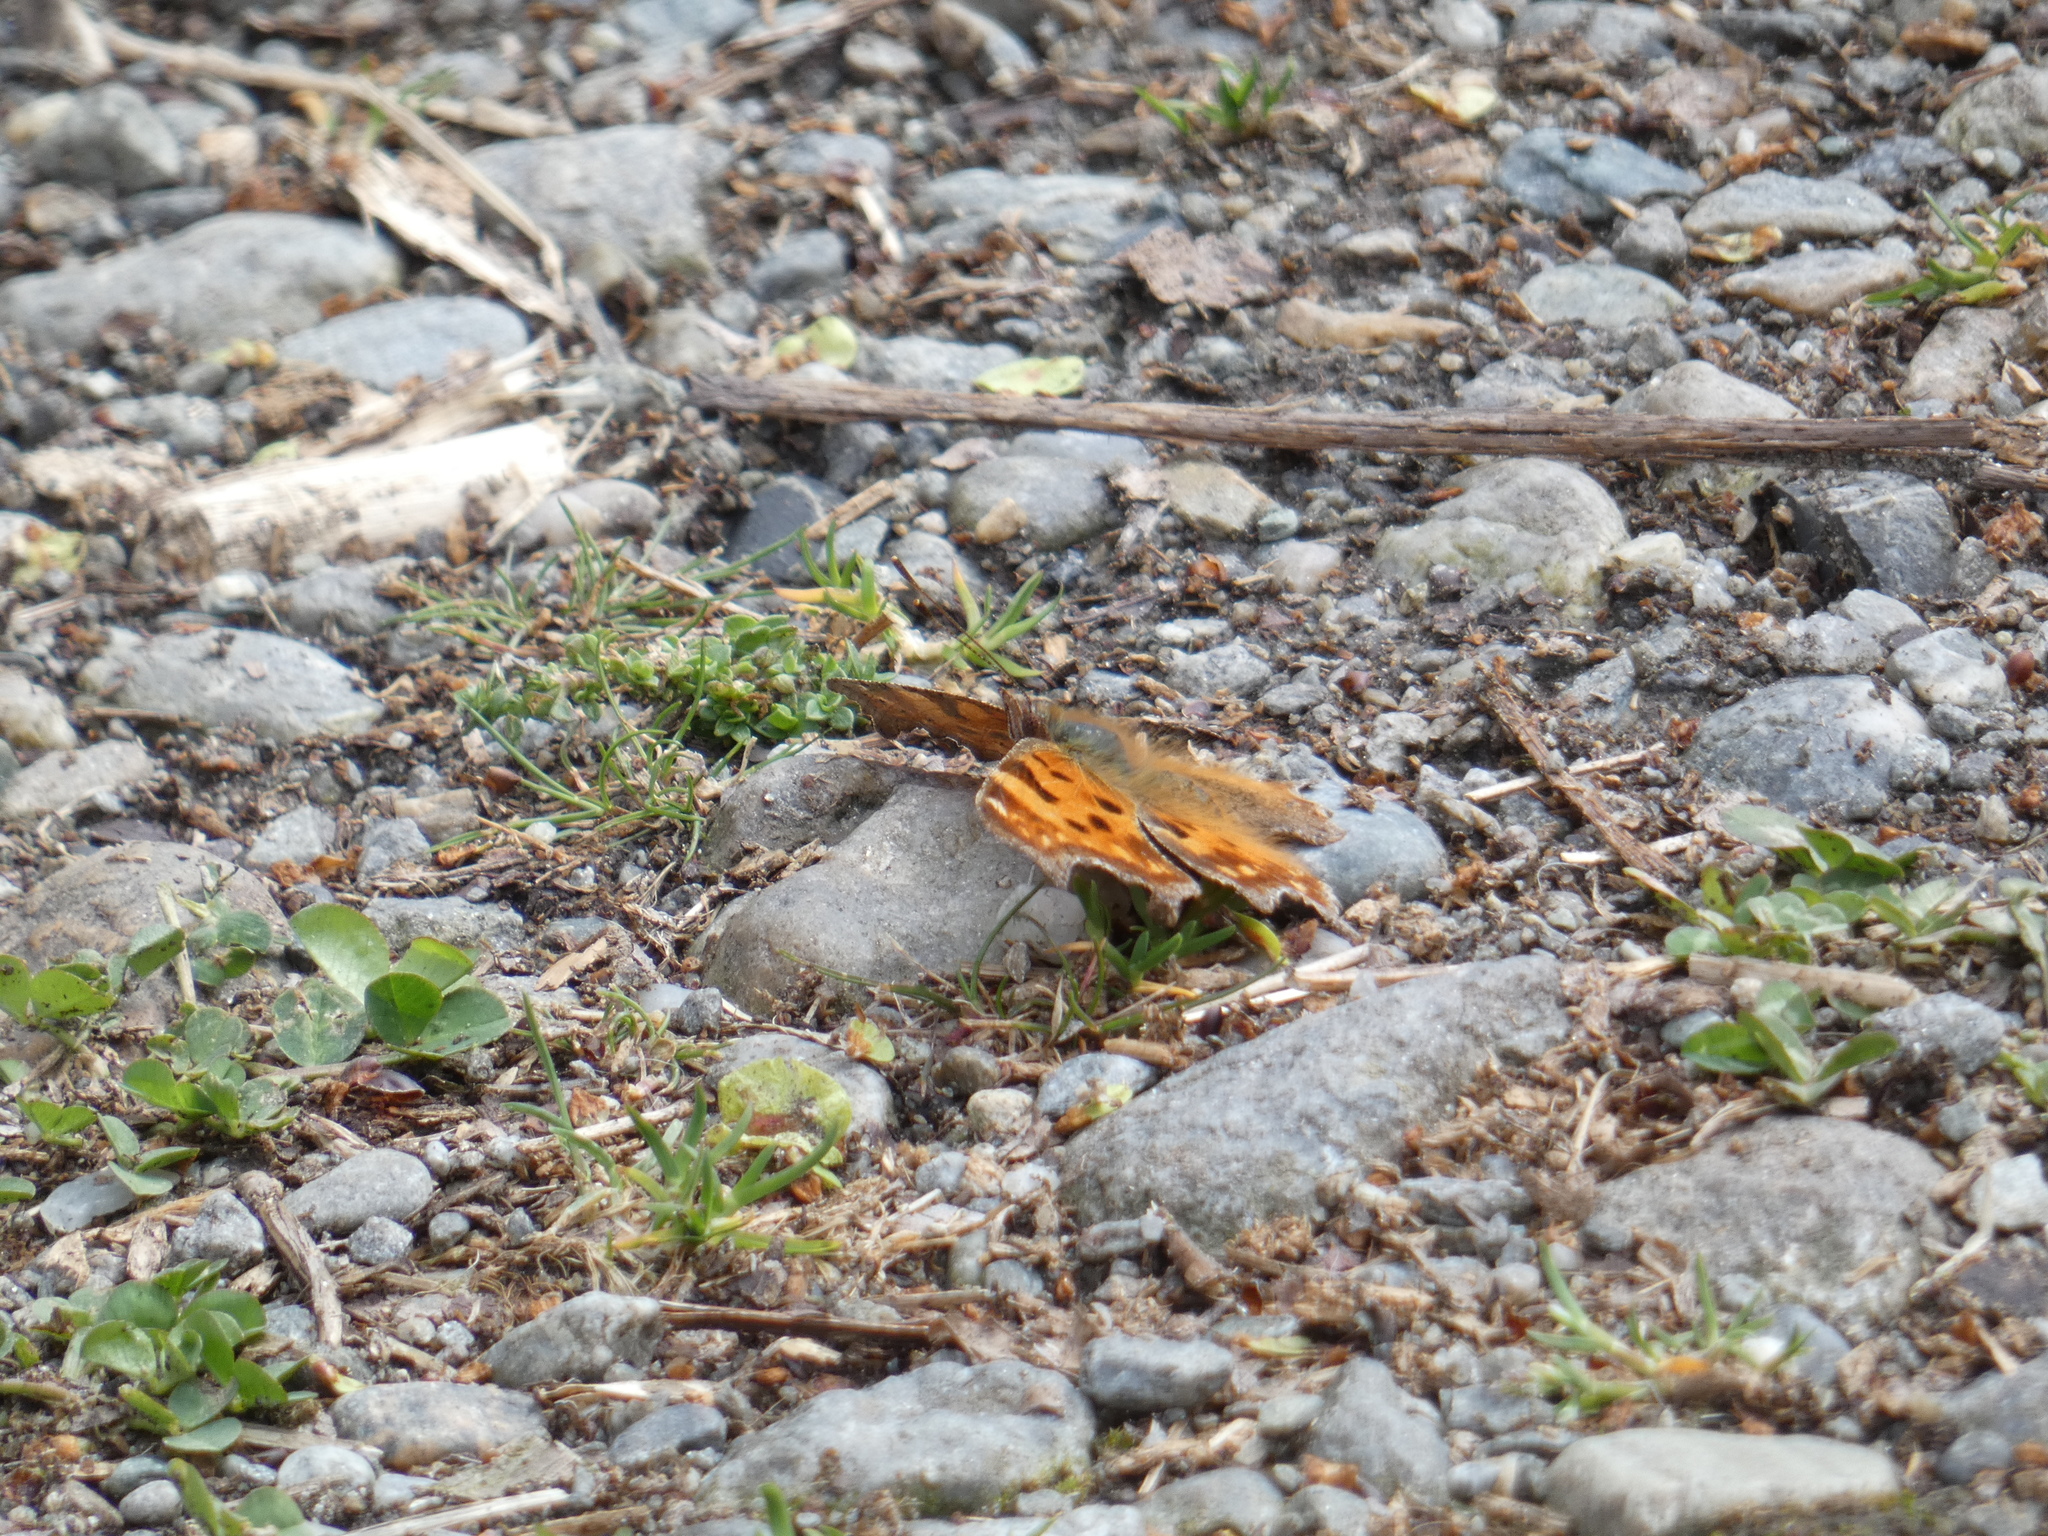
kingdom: Animalia
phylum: Arthropoda
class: Insecta
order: Lepidoptera
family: Nymphalidae
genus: Polygonia
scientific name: Polygonia c-album
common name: Comma
